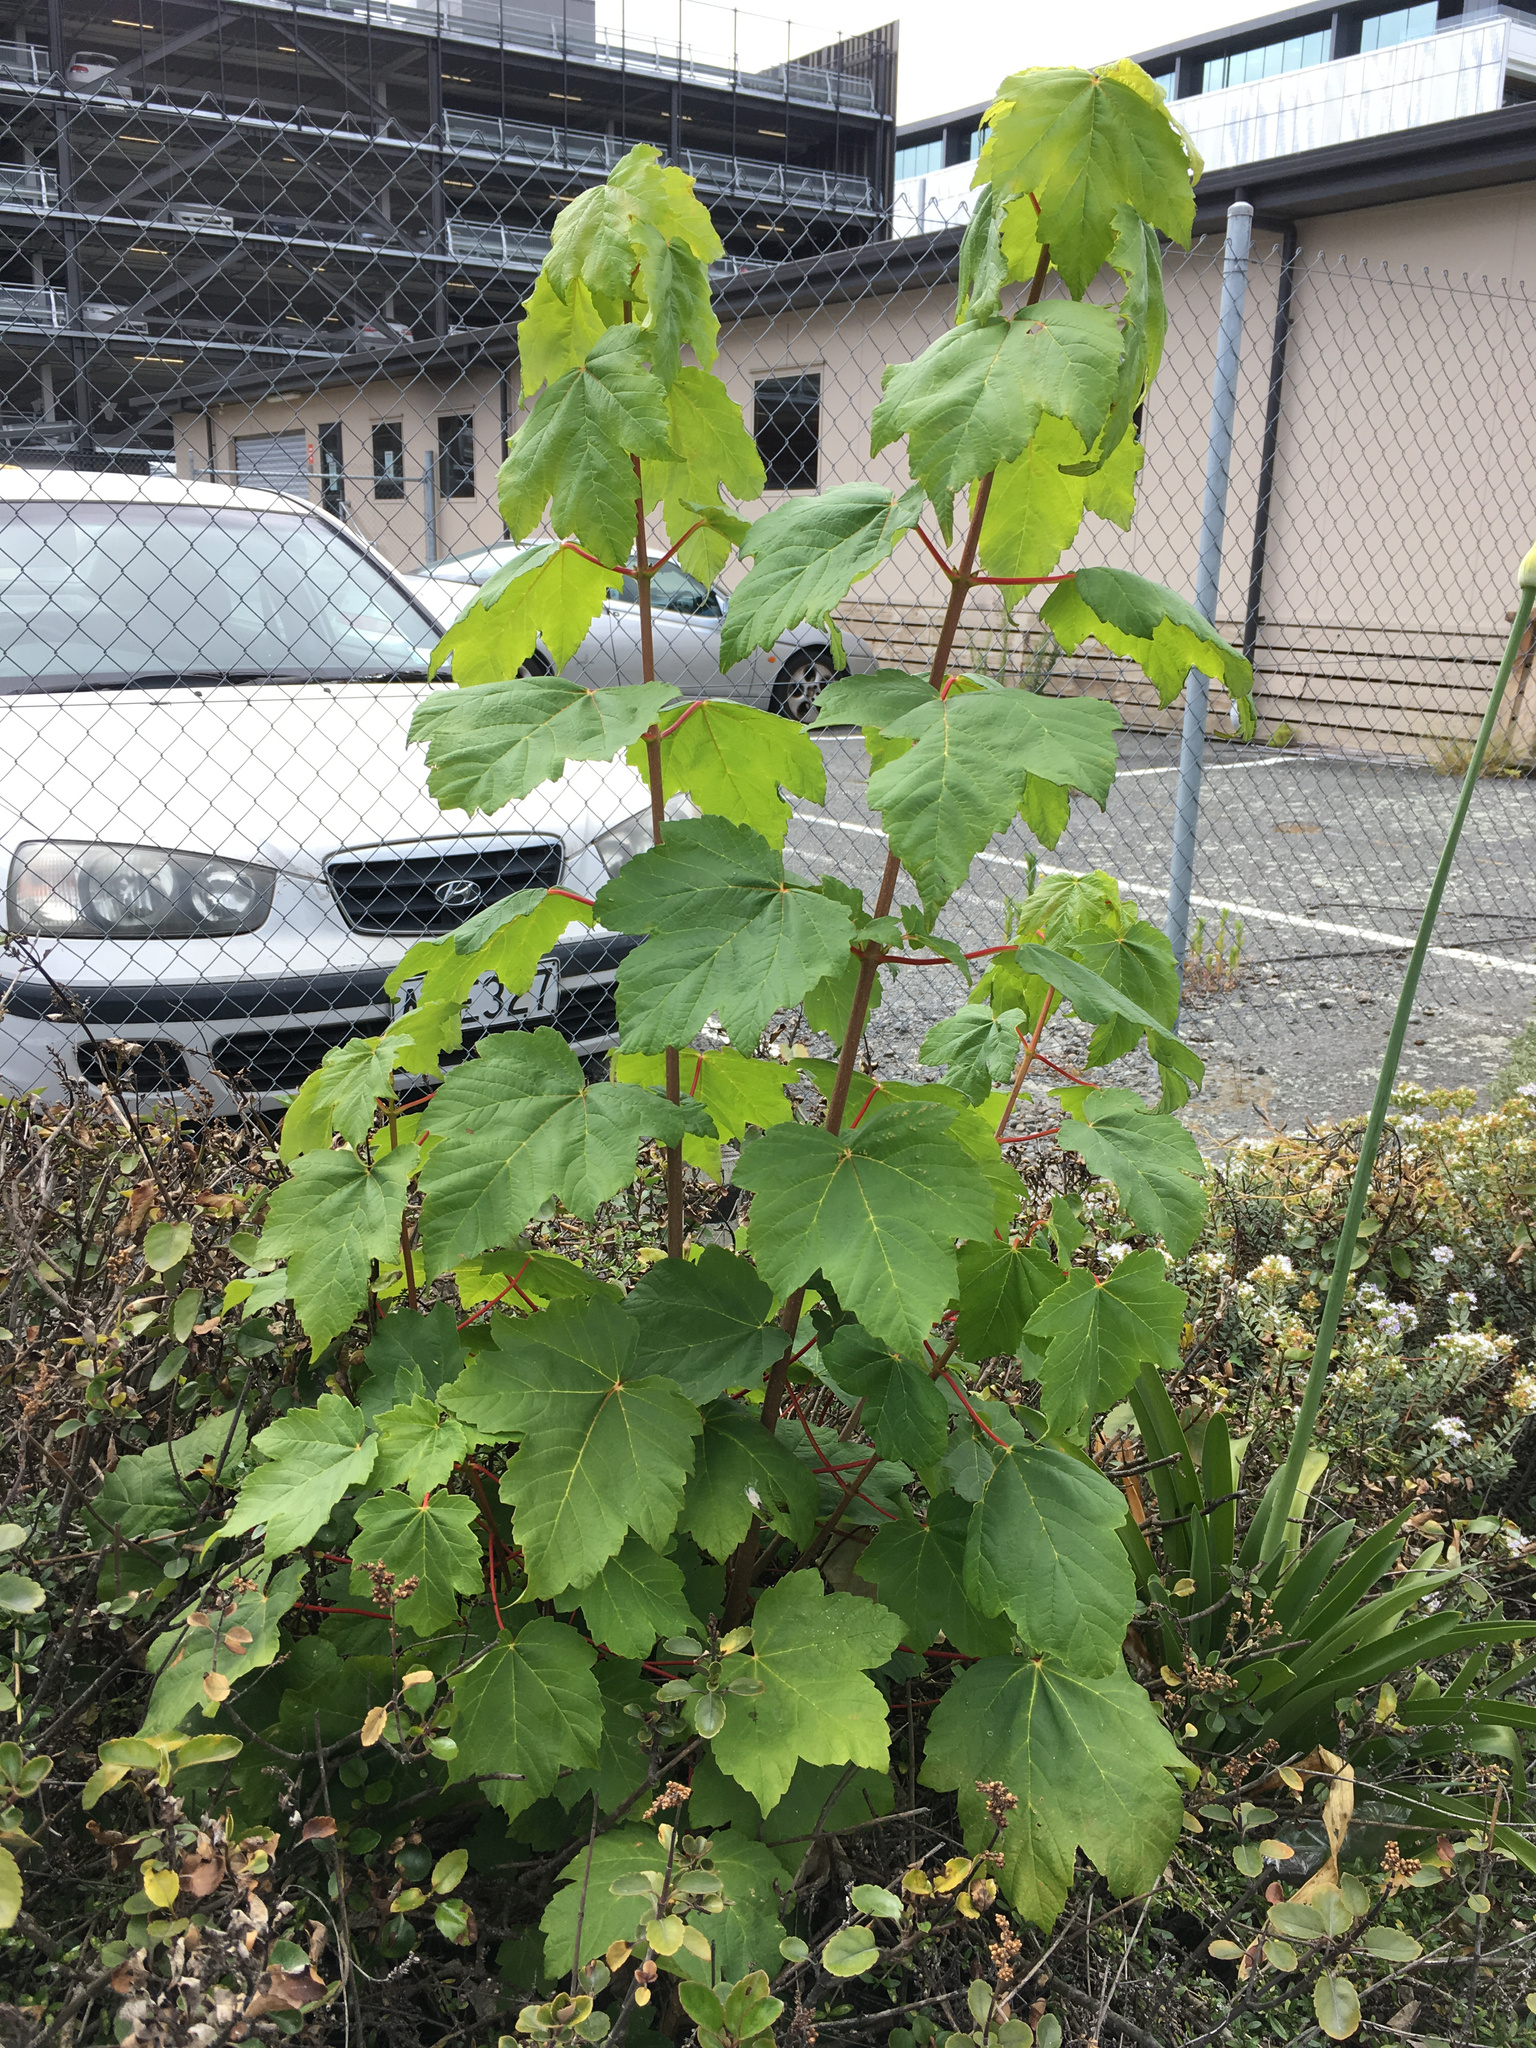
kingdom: Plantae
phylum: Tracheophyta
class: Magnoliopsida
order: Sapindales
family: Sapindaceae
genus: Acer
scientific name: Acer pseudoplatanus
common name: Sycamore
